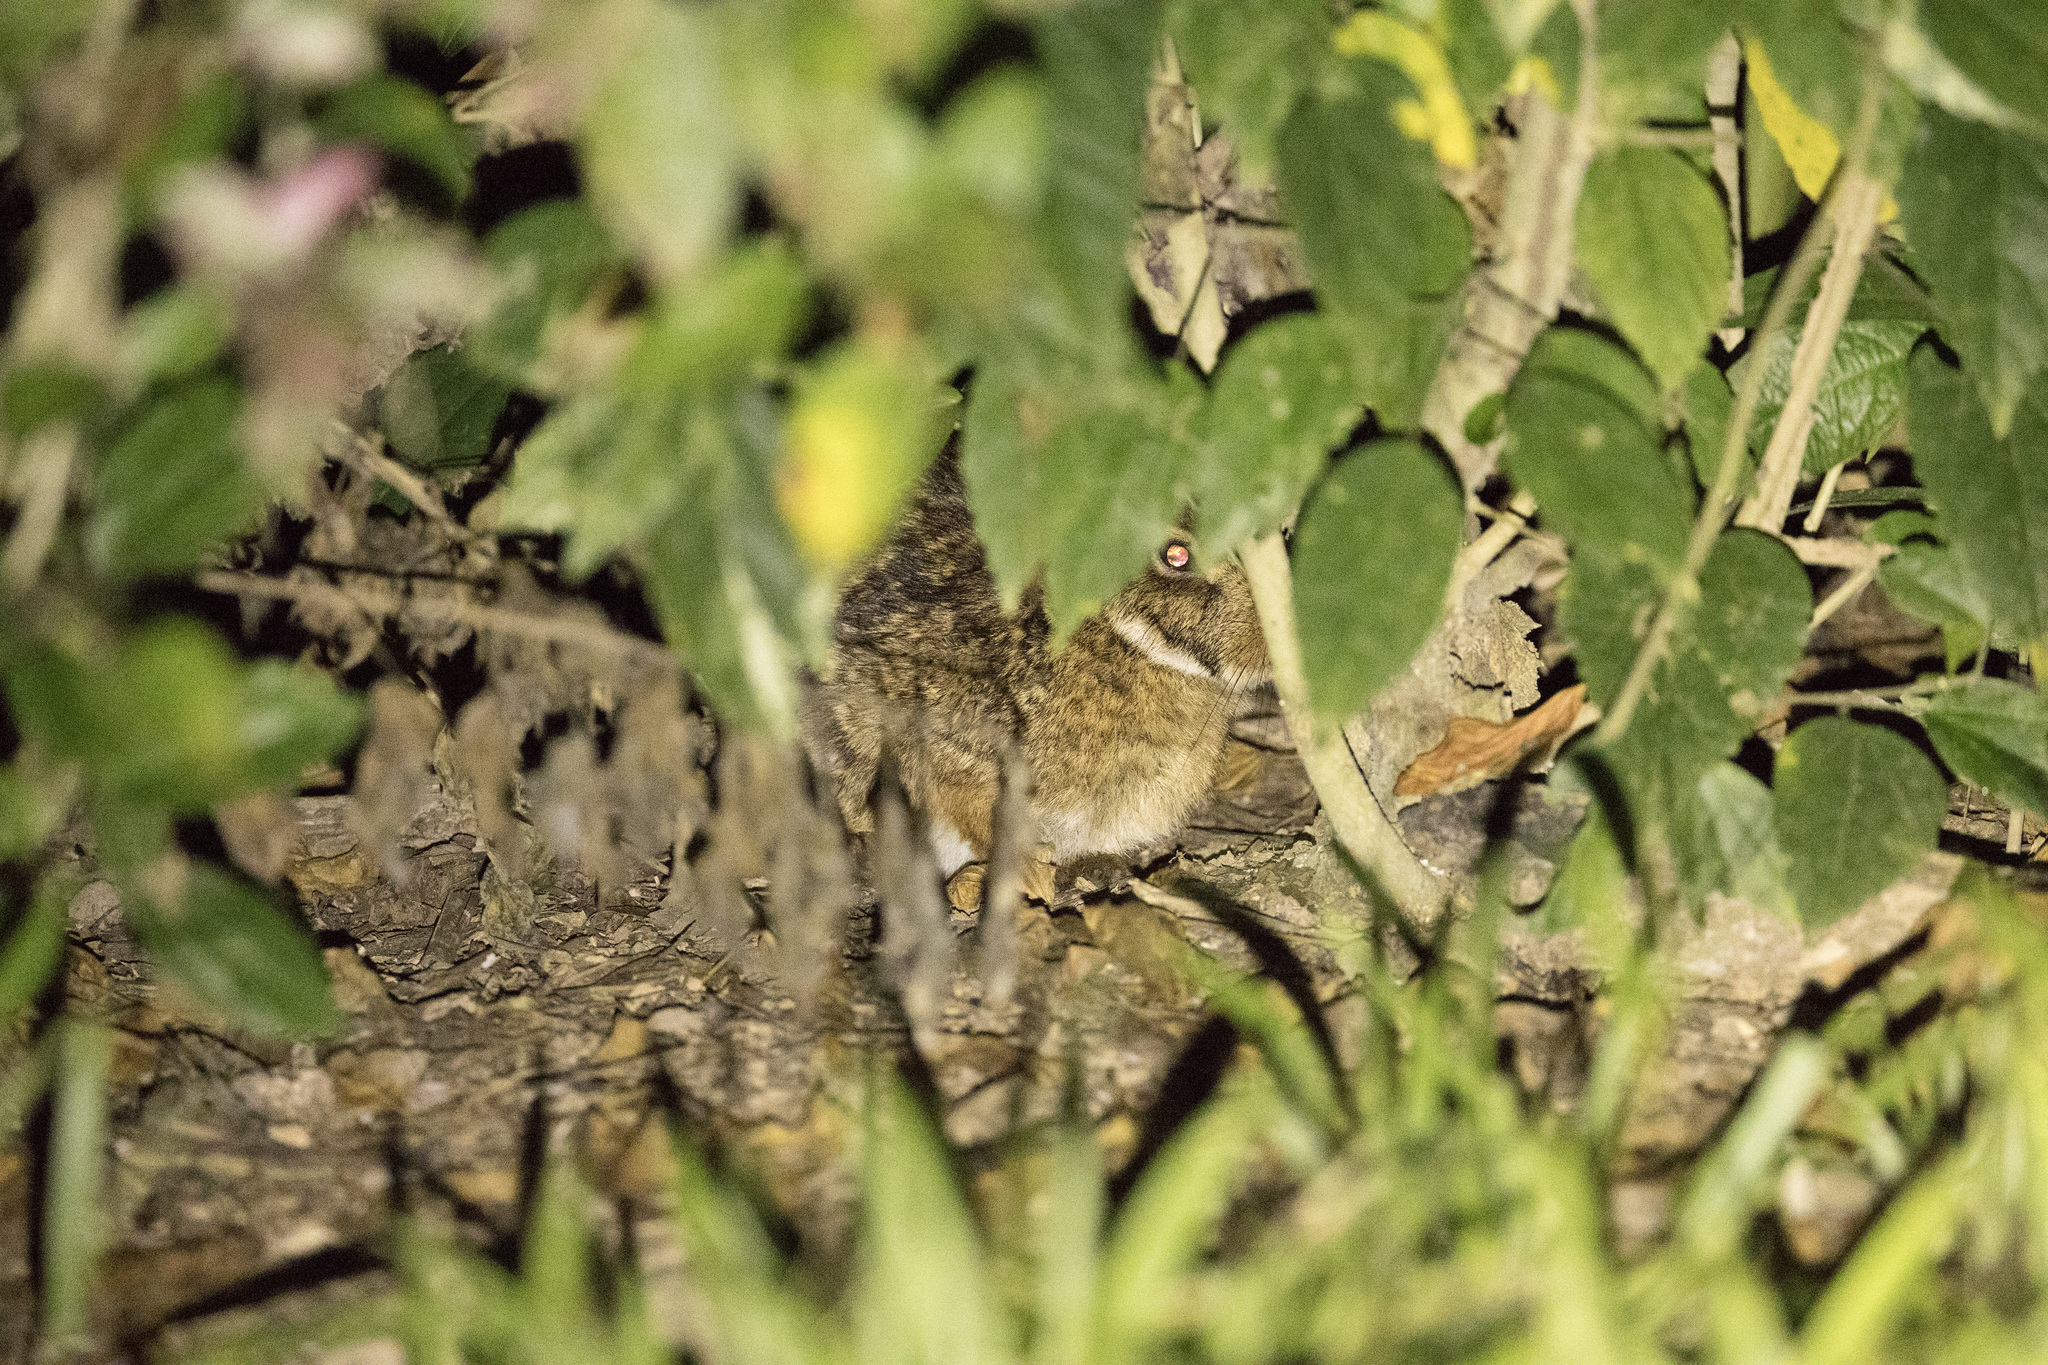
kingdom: Animalia
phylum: Chordata
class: Mammalia
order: Lagomorpha
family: Leporidae
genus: Sylvilagus
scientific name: Sylvilagus brasiliensis
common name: Tapeti
